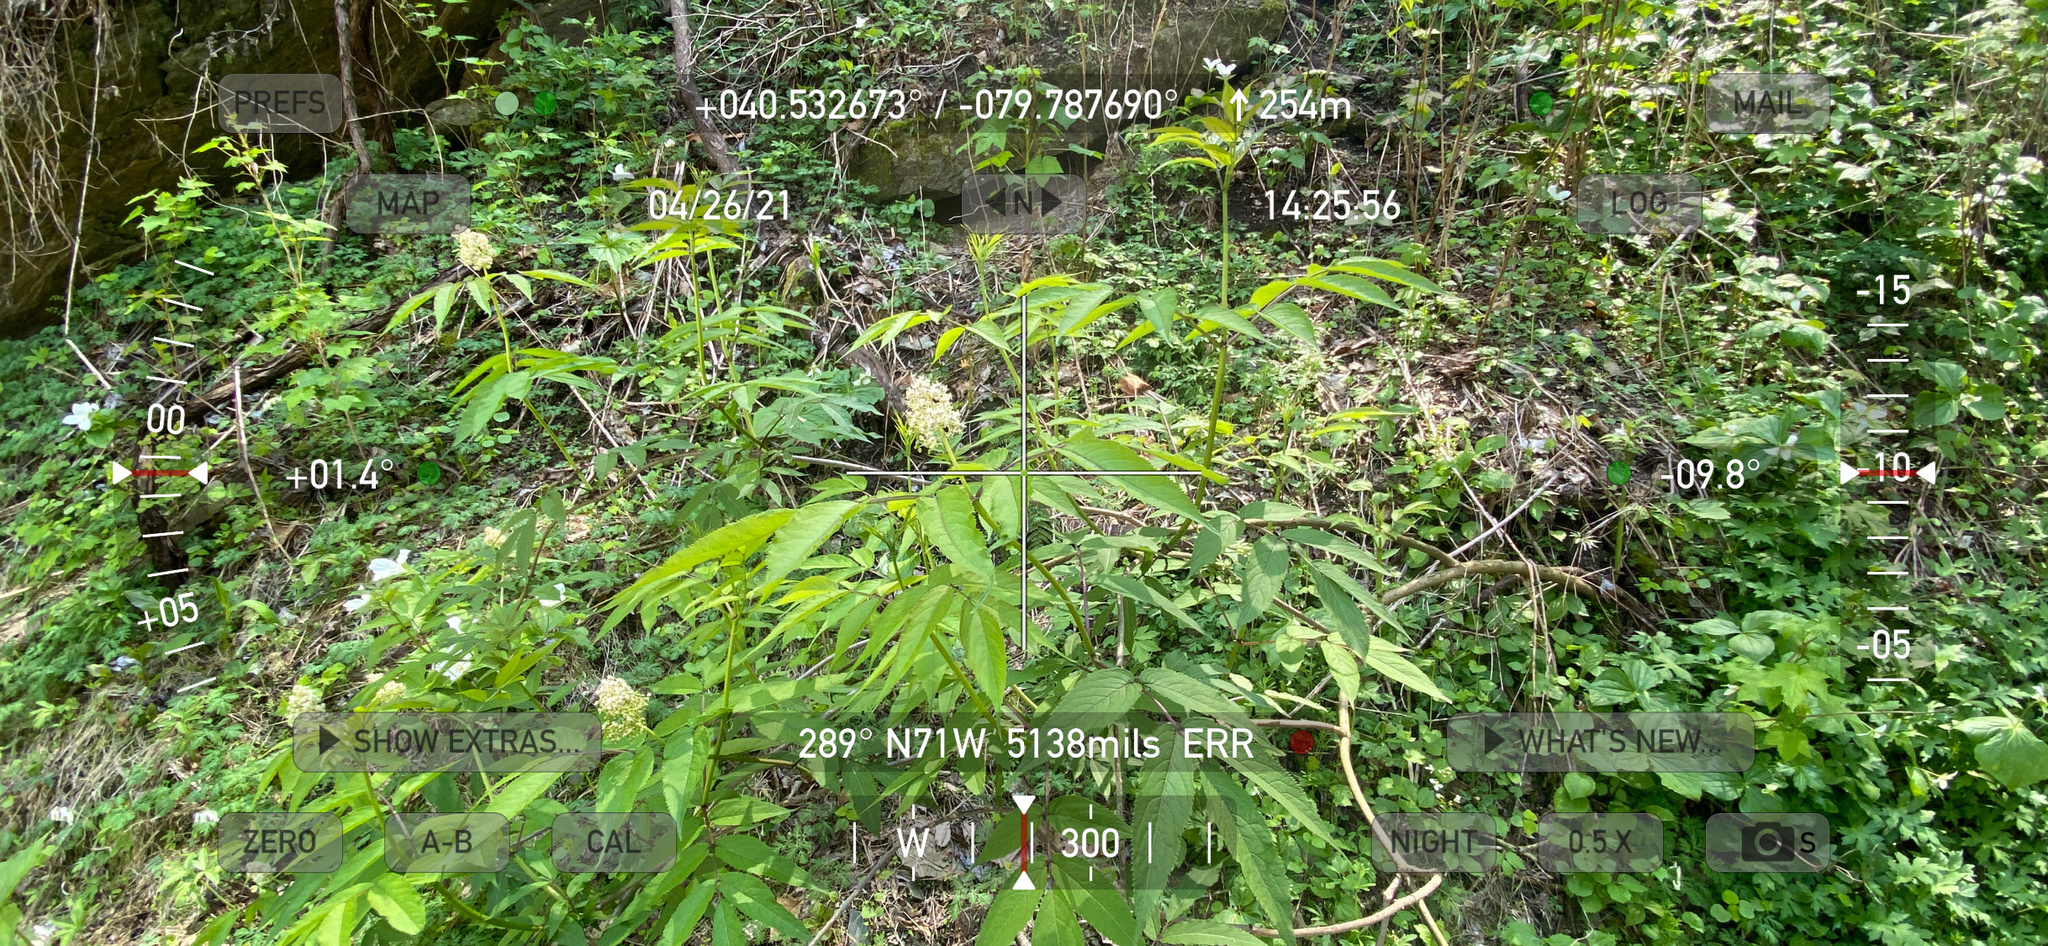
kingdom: Plantae
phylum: Tracheophyta
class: Magnoliopsida
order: Dipsacales
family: Viburnaceae
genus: Sambucus
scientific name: Sambucus racemosa
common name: Red-berried elder
